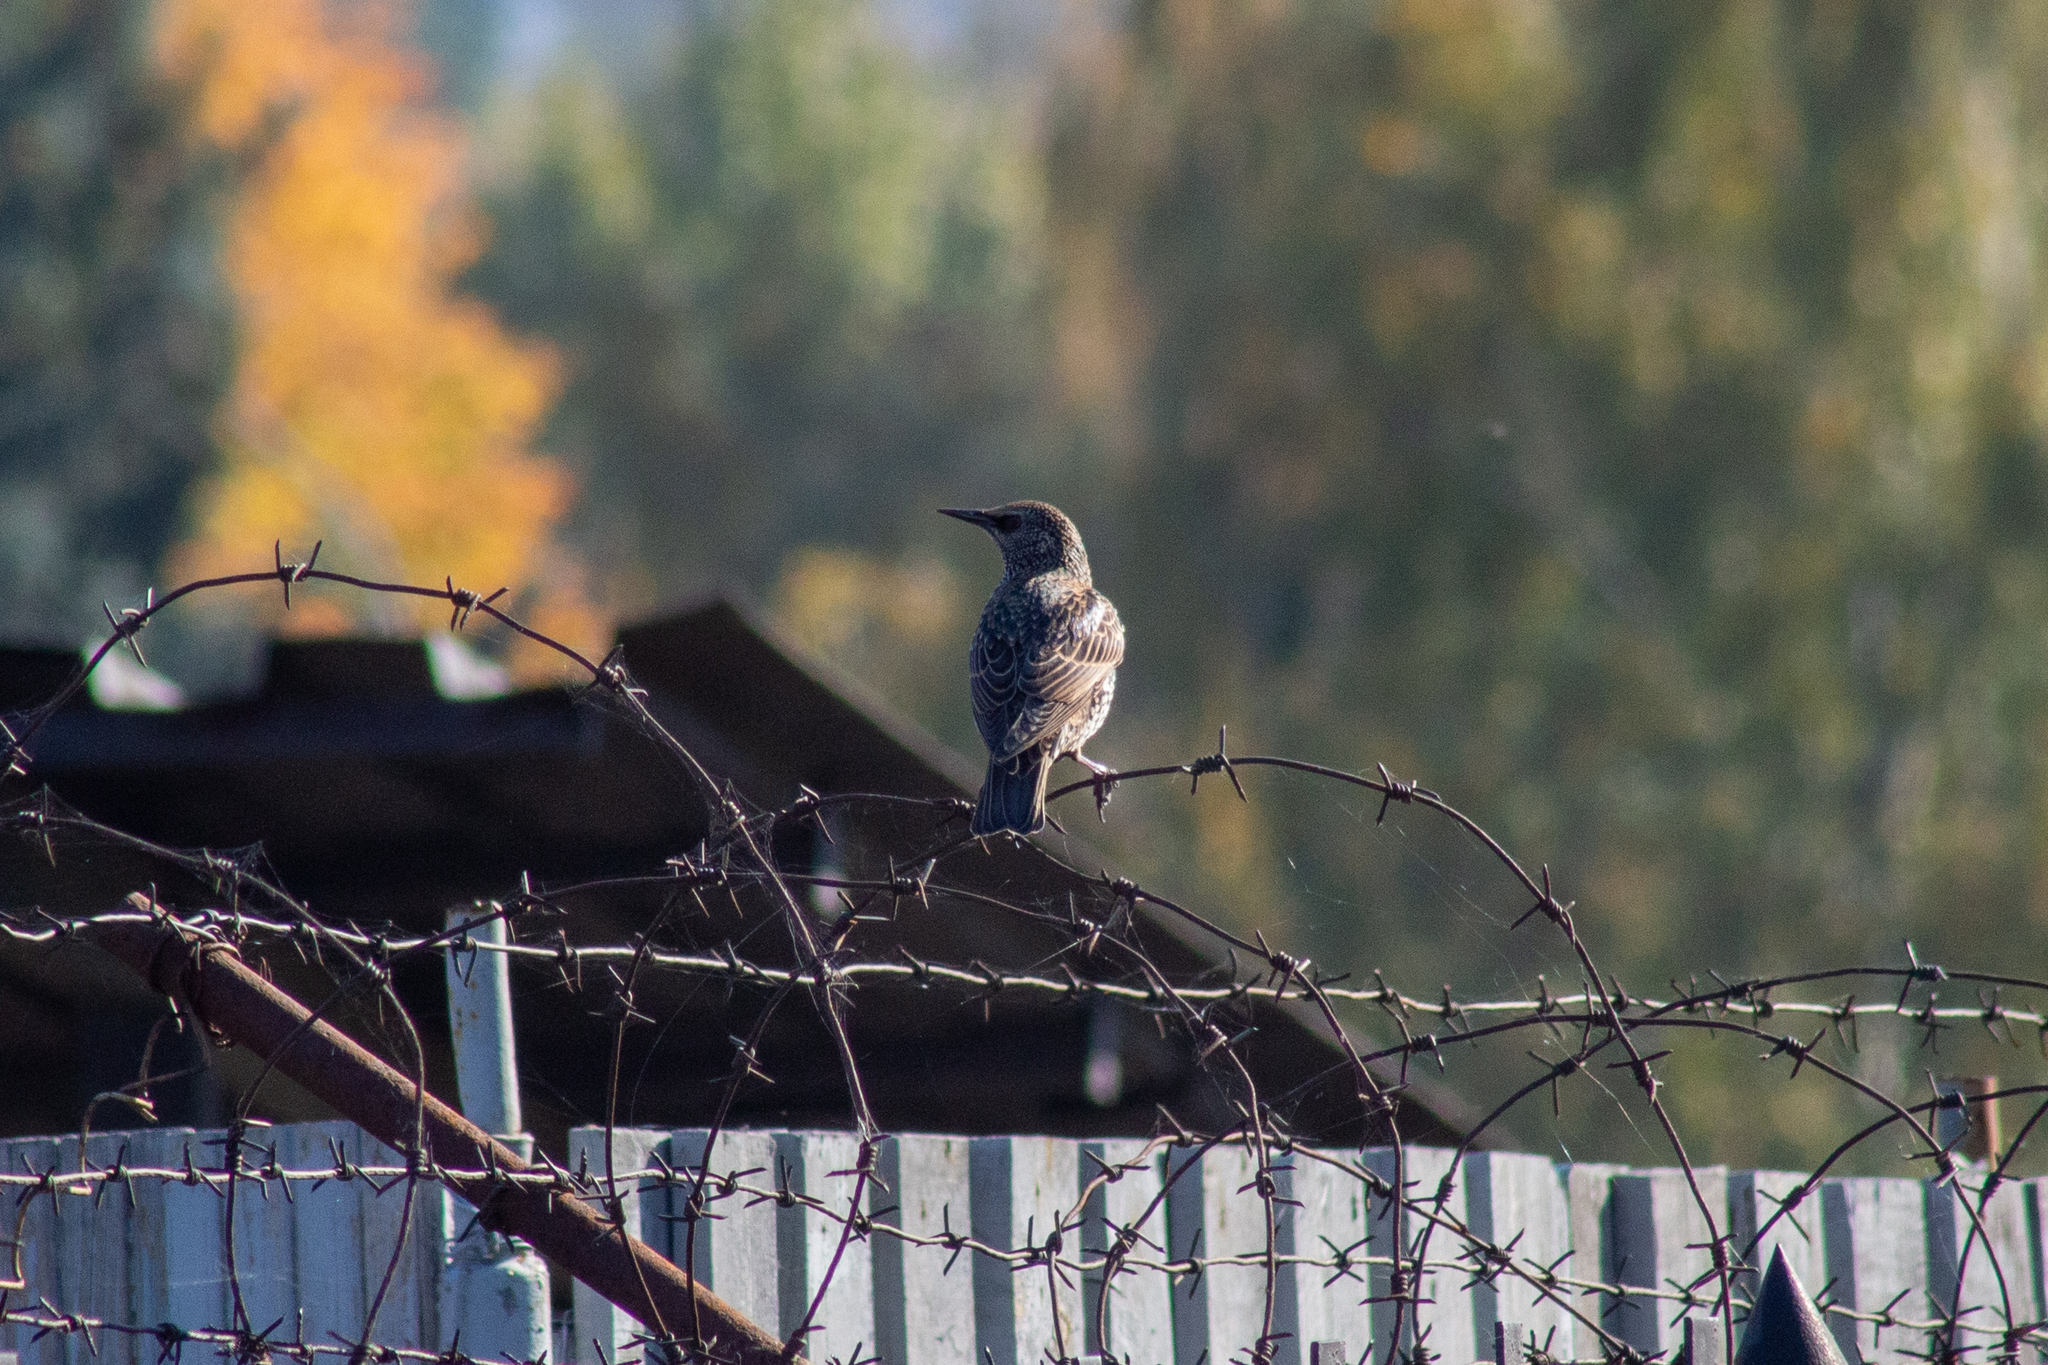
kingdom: Animalia
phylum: Chordata
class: Aves
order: Passeriformes
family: Sturnidae
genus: Sturnus
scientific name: Sturnus vulgaris
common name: Common starling
